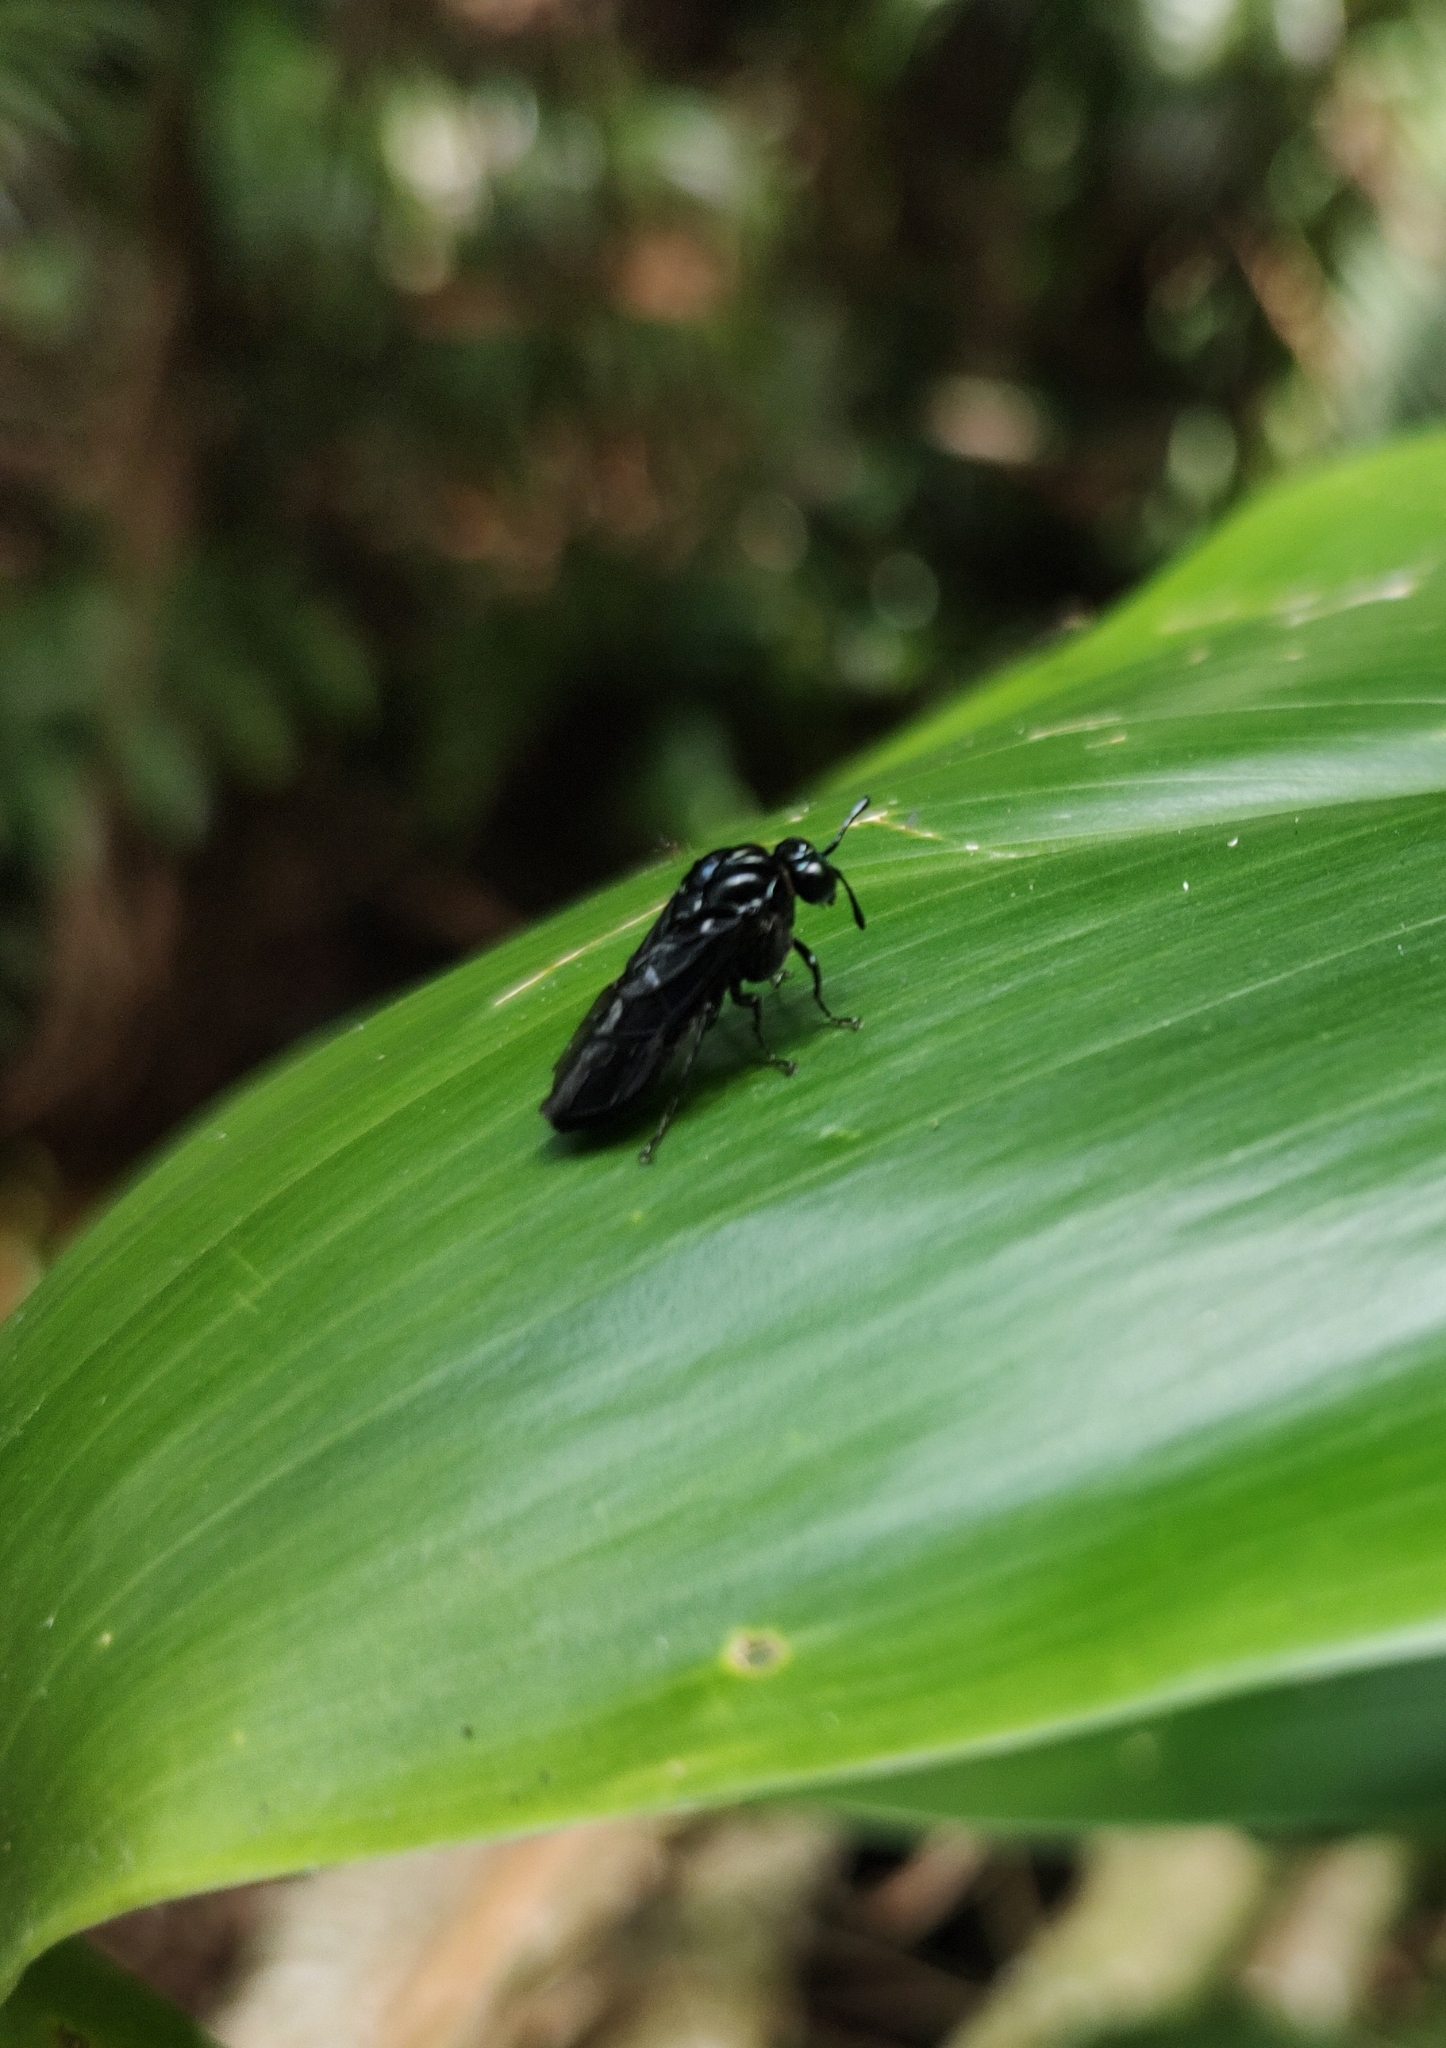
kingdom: Animalia
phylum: Arthropoda
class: Insecta
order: Hymenoptera
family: Cimbicidae
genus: Pachylosticta
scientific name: Pachylosticta violacea
